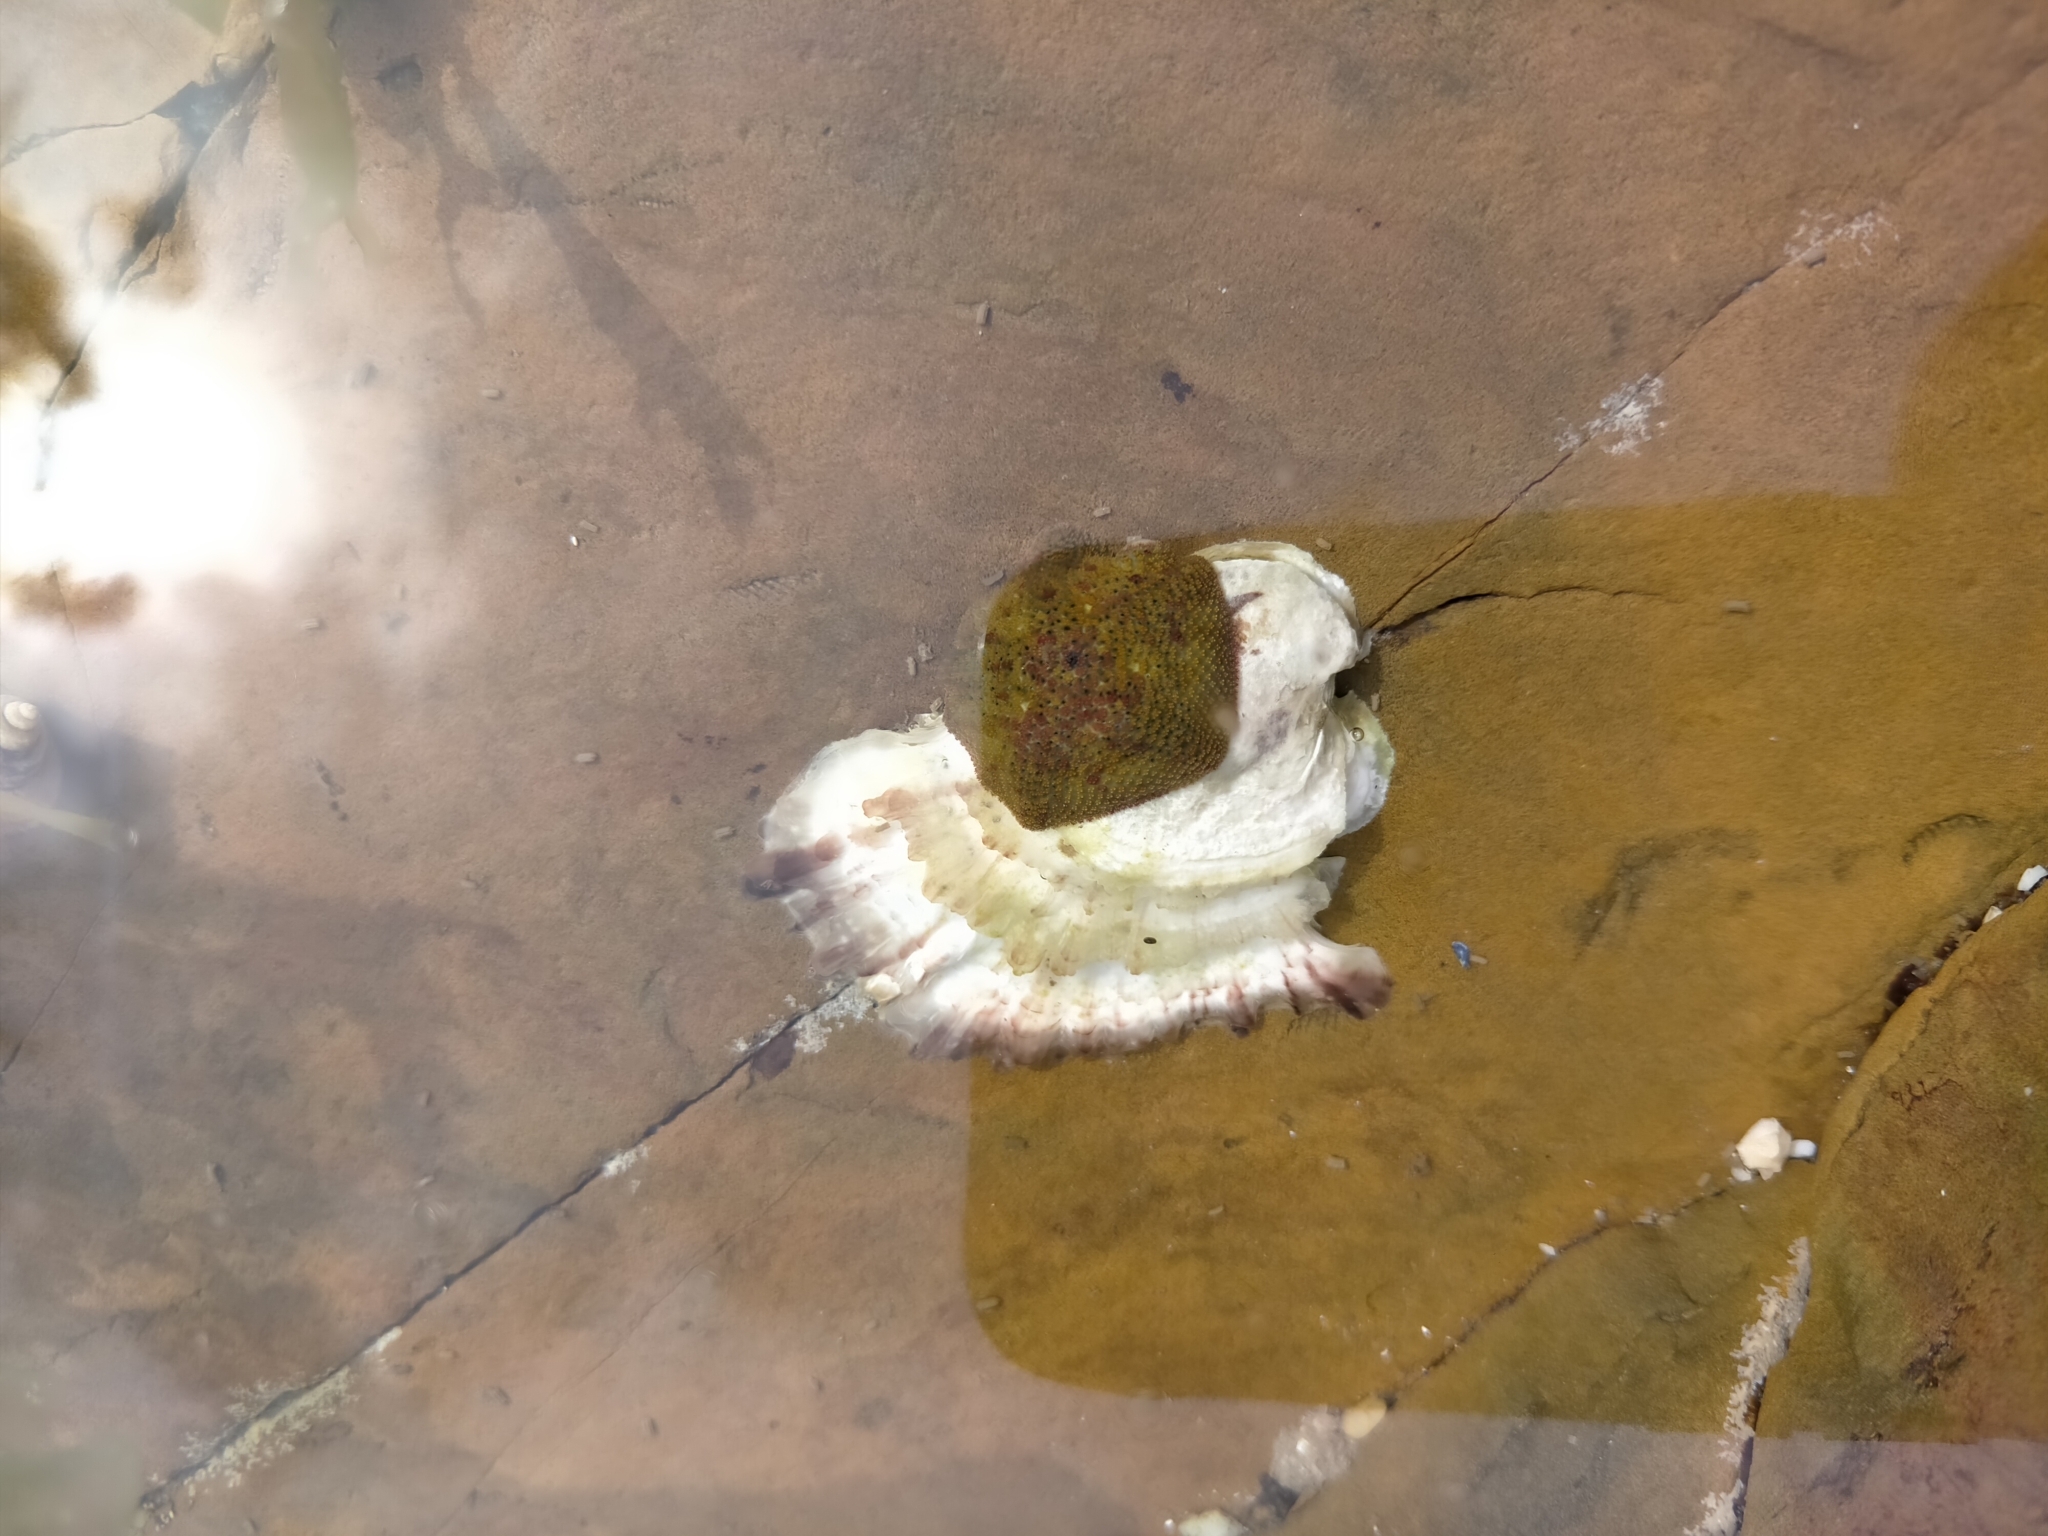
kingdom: Animalia
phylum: Echinodermata
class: Asteroidea
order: Valvatida
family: Asterinidae
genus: Parvulastra
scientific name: Parvulastra exigua
